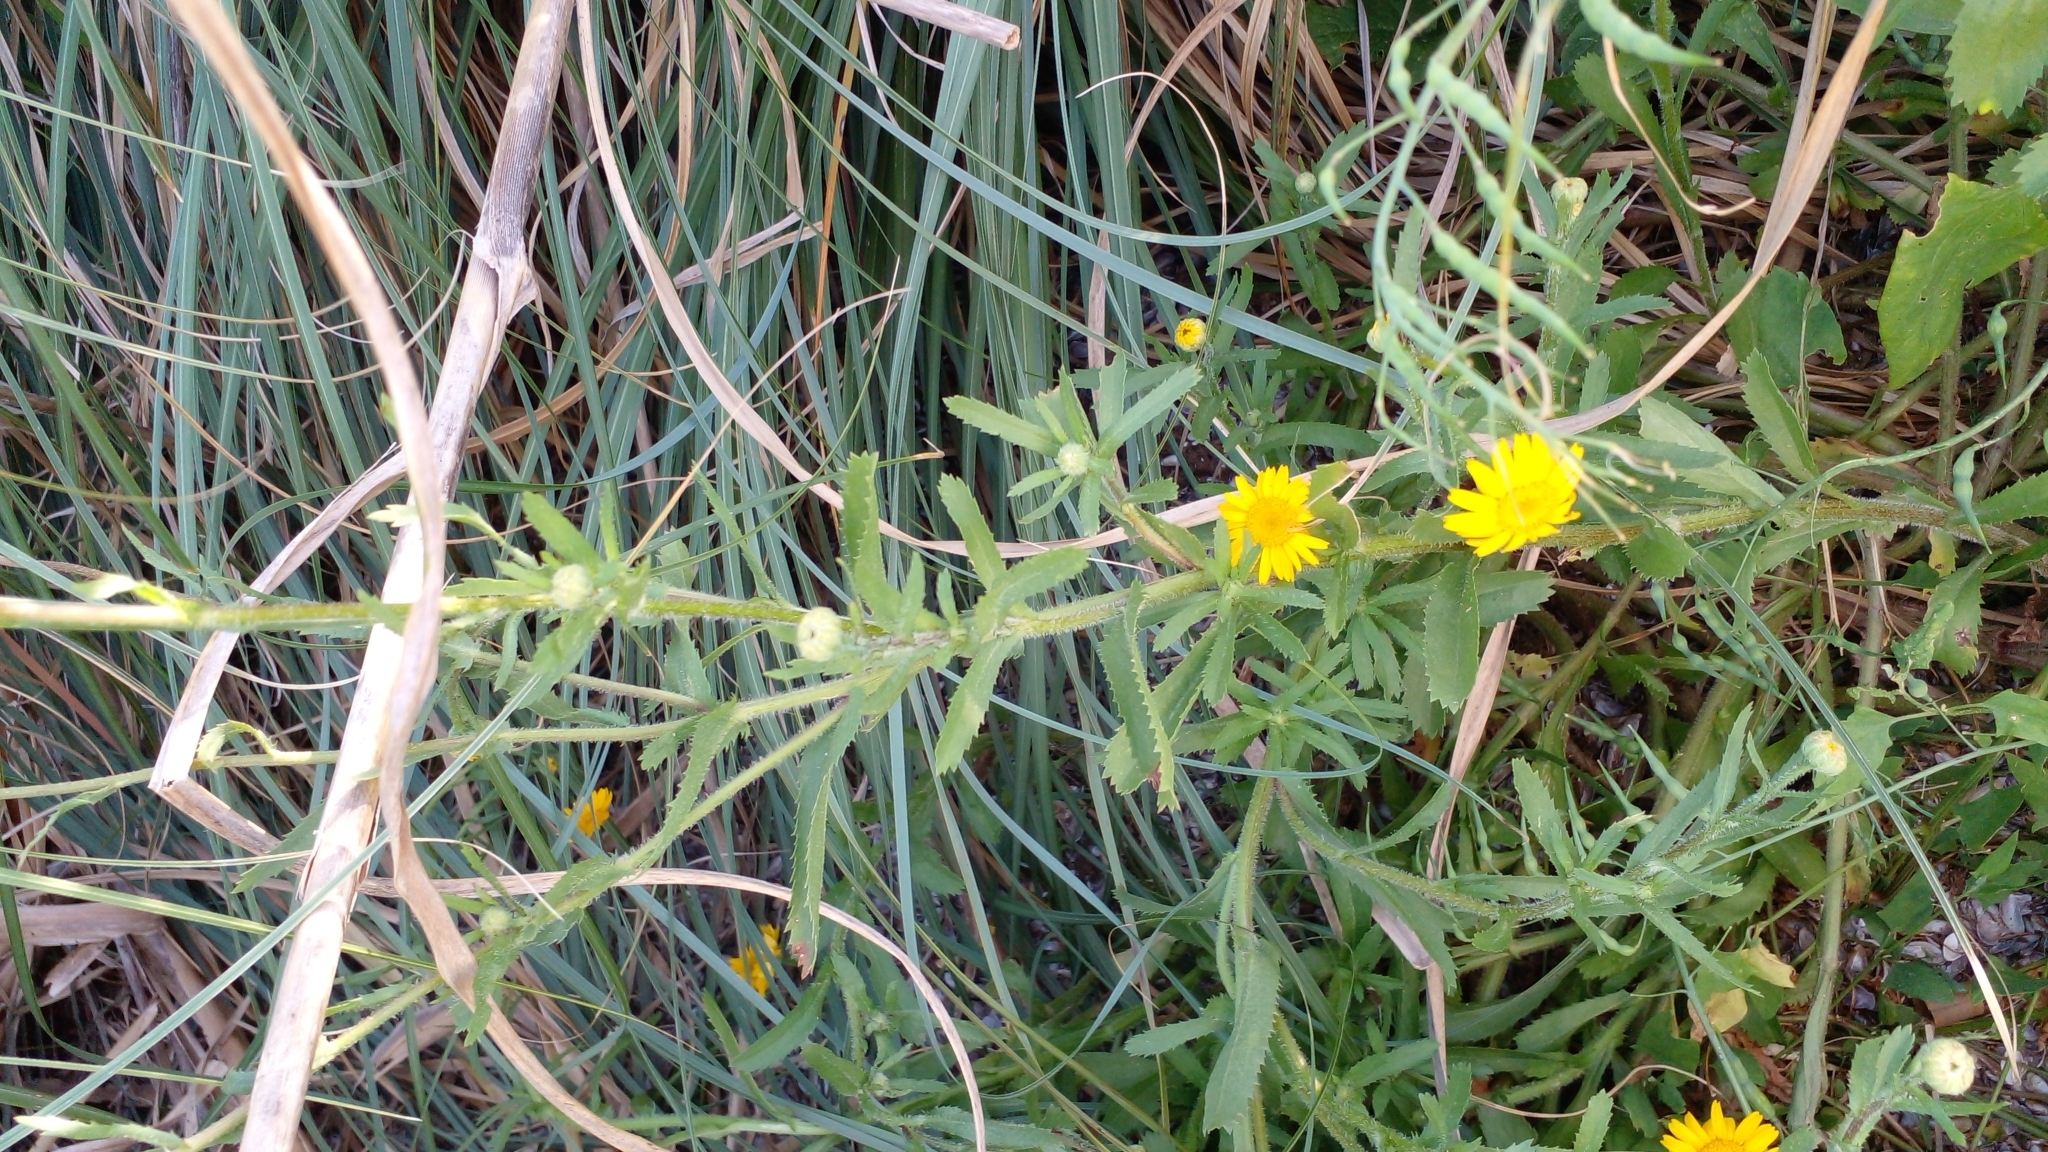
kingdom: Plantae
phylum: Tracheophyta
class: Magnoliopsida
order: Asterales
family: Asteraceae
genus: Coleostephus
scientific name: Coleostephus myconis
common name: Mediterranean marigold
